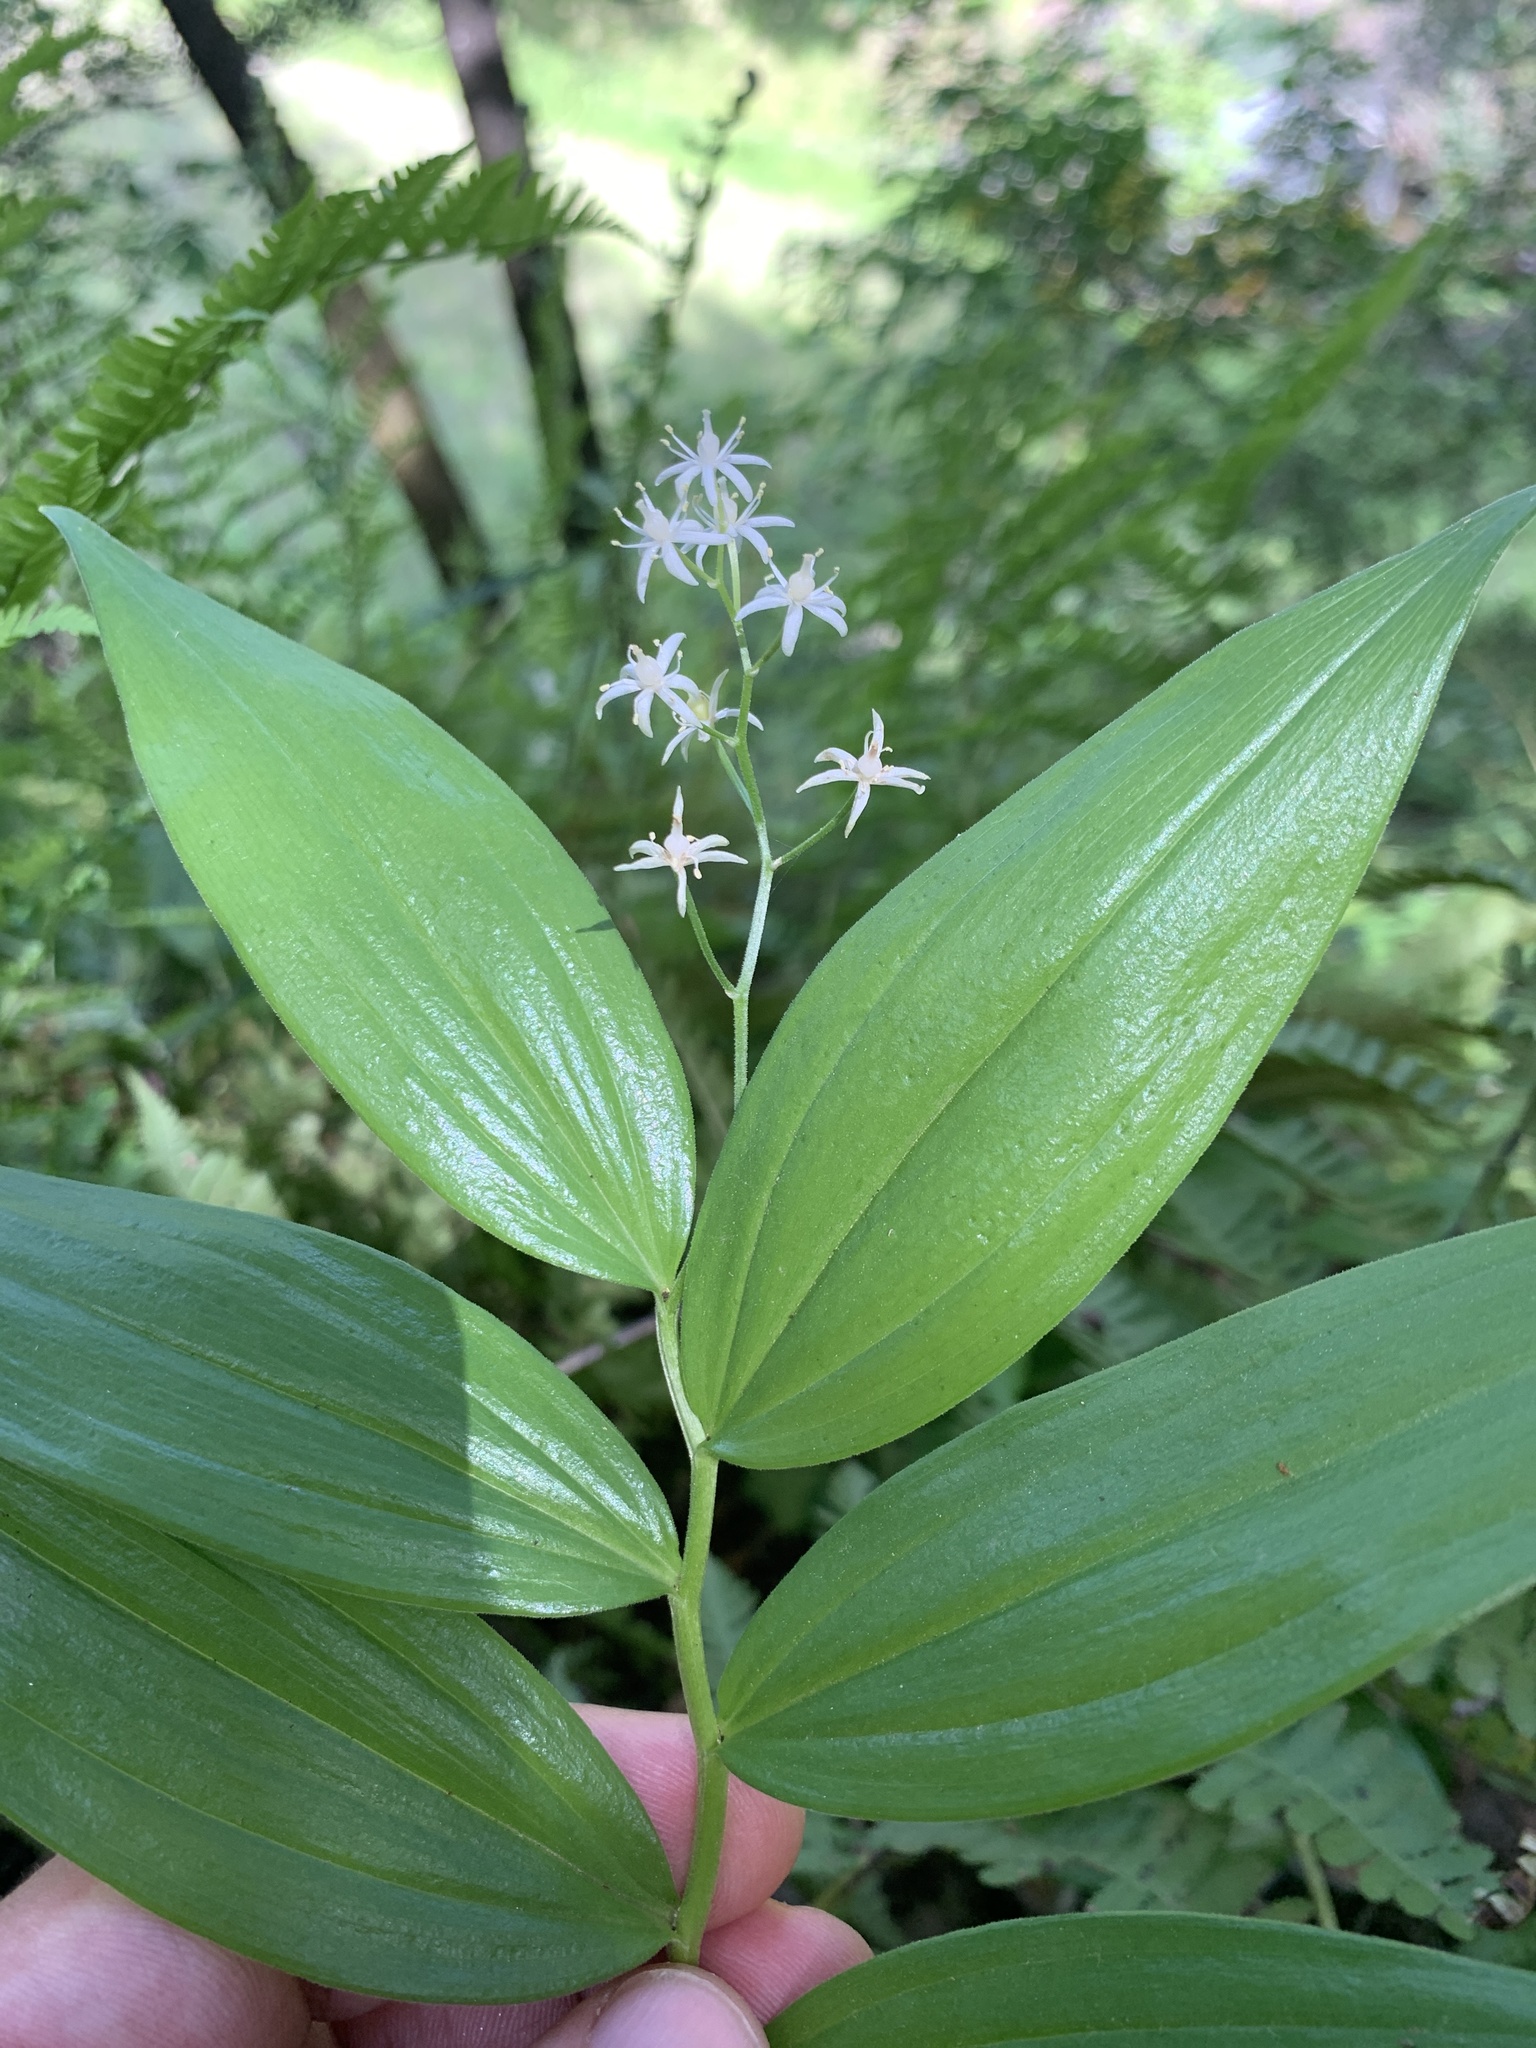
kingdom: Plantae
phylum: Tracheophyta
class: Liliopsida
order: Asparagales
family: Asparagaceae
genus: Maianthemum
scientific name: Maianthemum stellatum
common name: Little false solomon's seal
